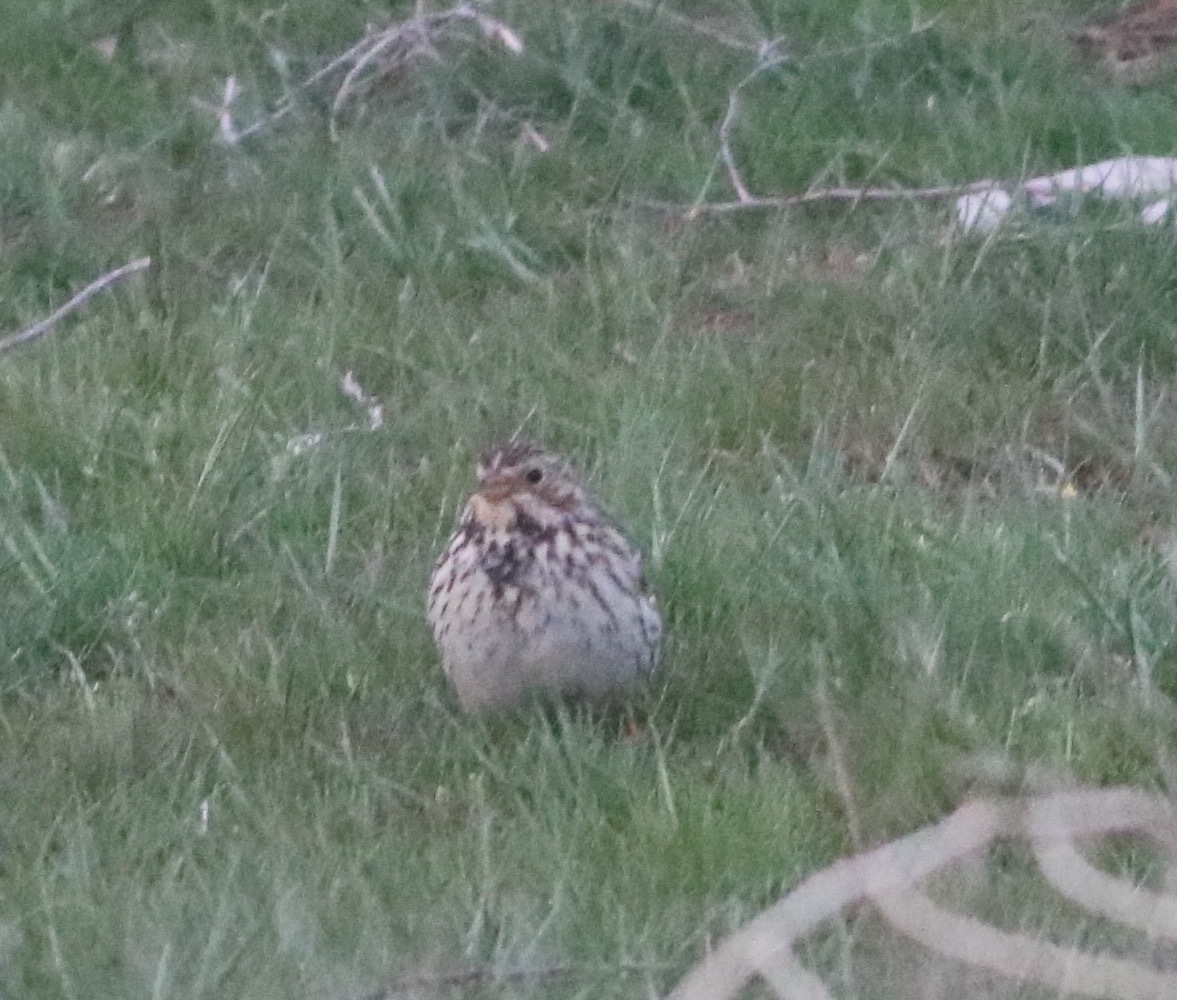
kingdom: Animalia
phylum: Chordata
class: Aves
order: Passeriformes
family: Emberizidae
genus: Emberiza
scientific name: Emberiza calandra
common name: Corn bunting
